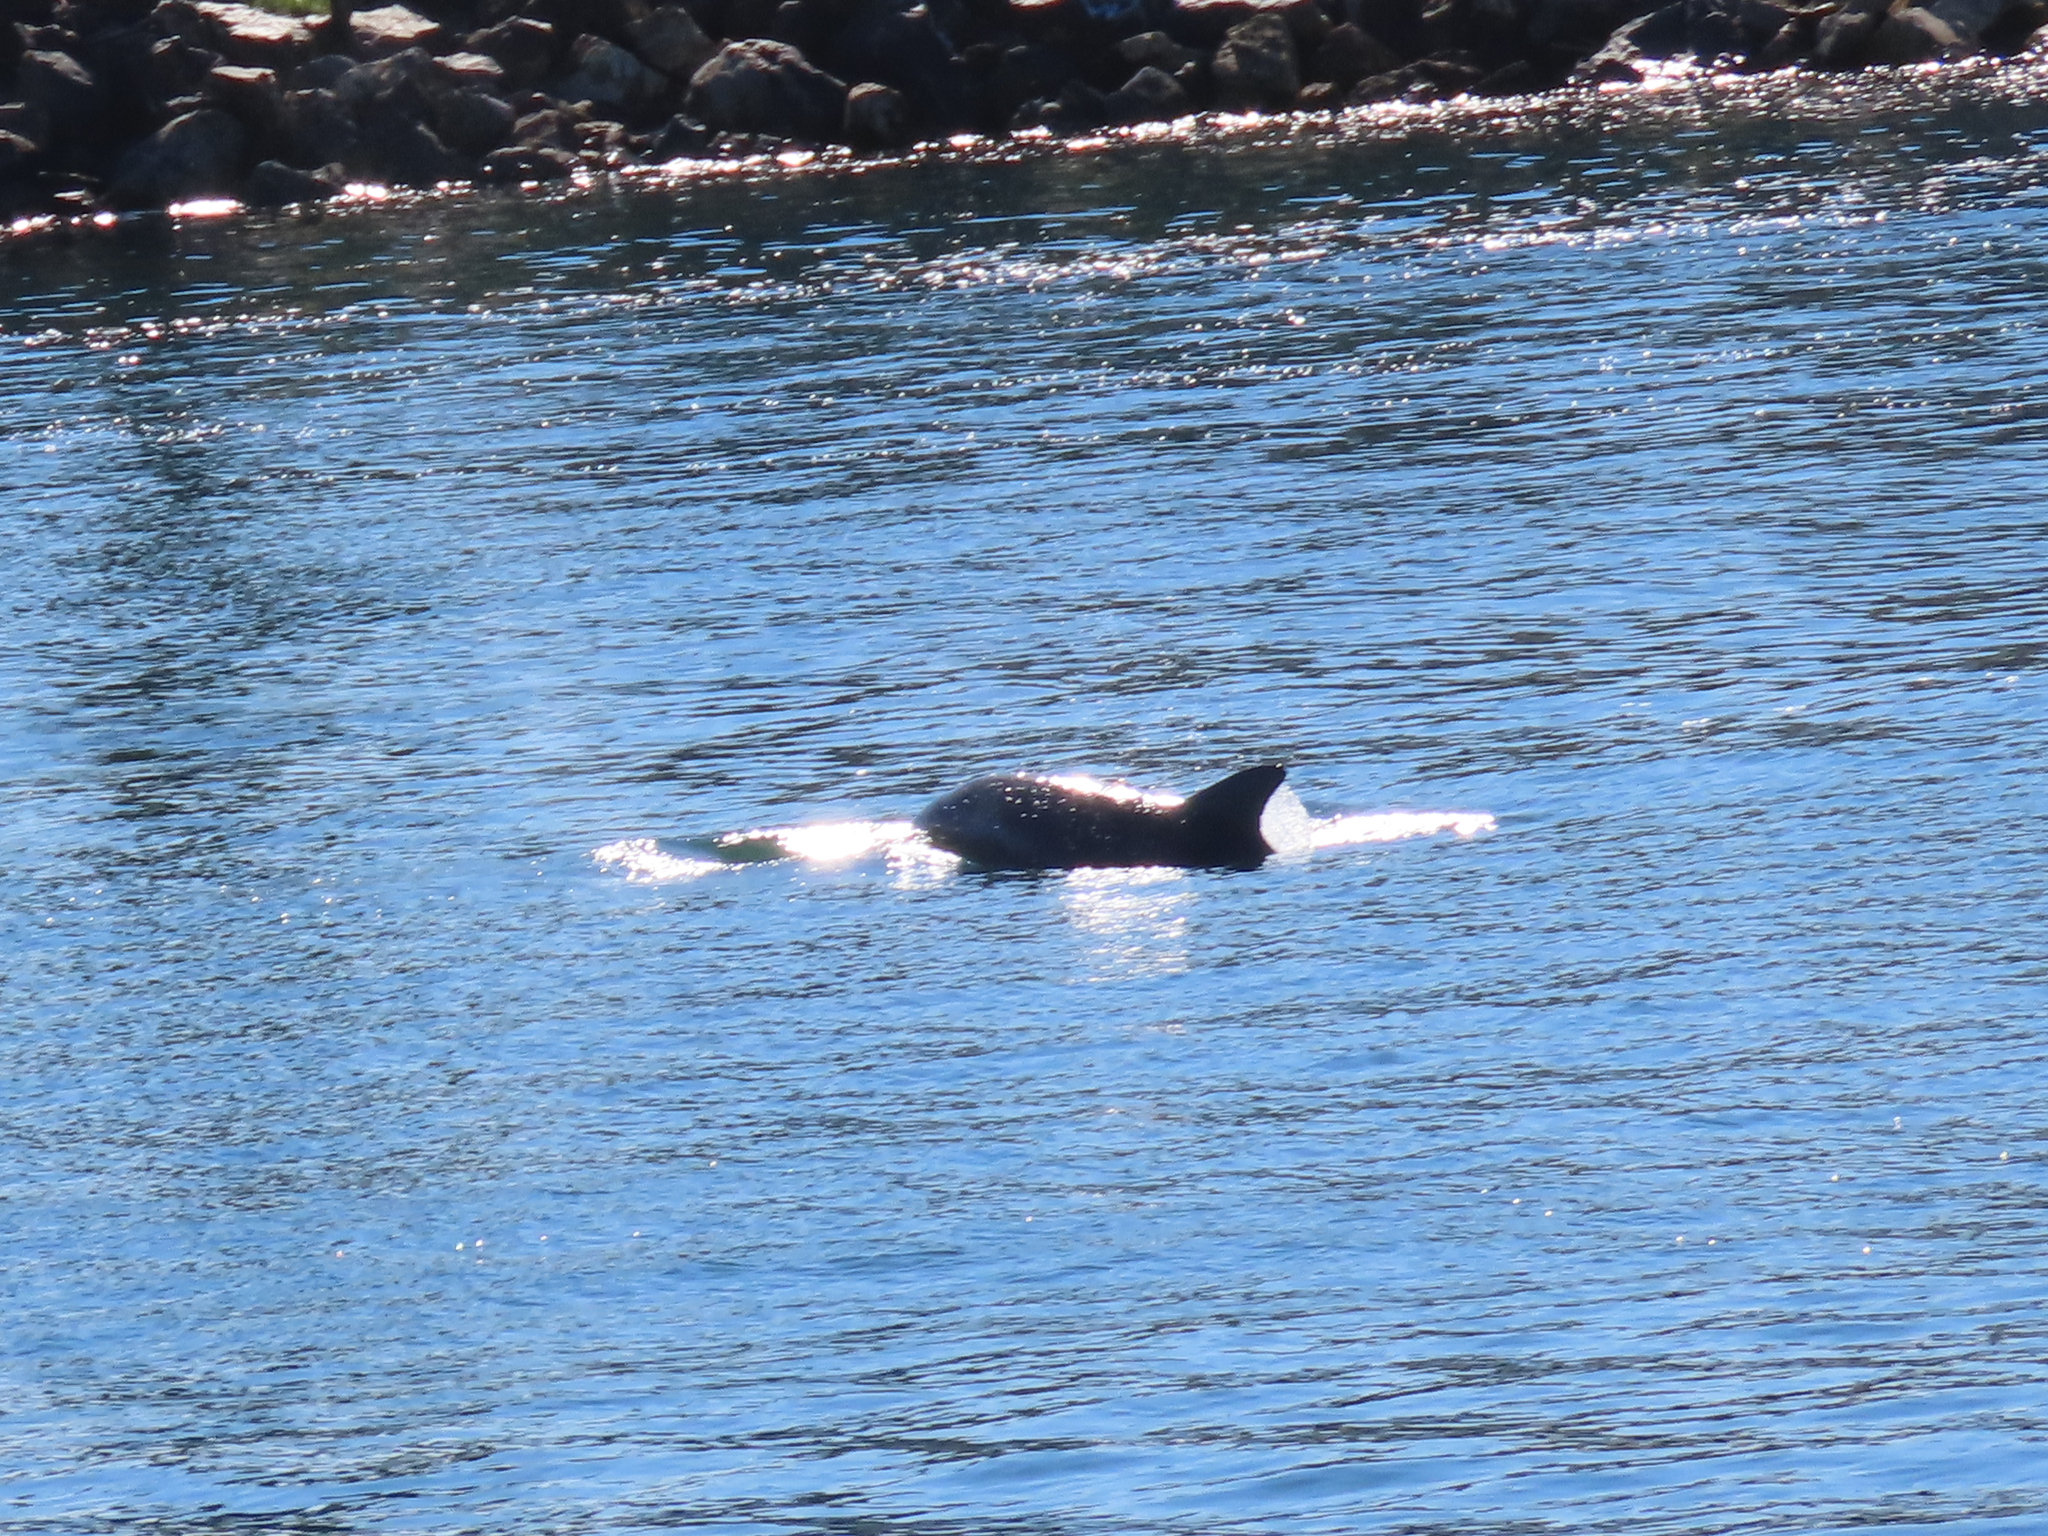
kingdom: Animalia
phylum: Chordata
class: Mammalia
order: Cetacea
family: Delphinidae
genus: Tursiops
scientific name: Tursiops truncatus
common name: Bottlenose dolphin
